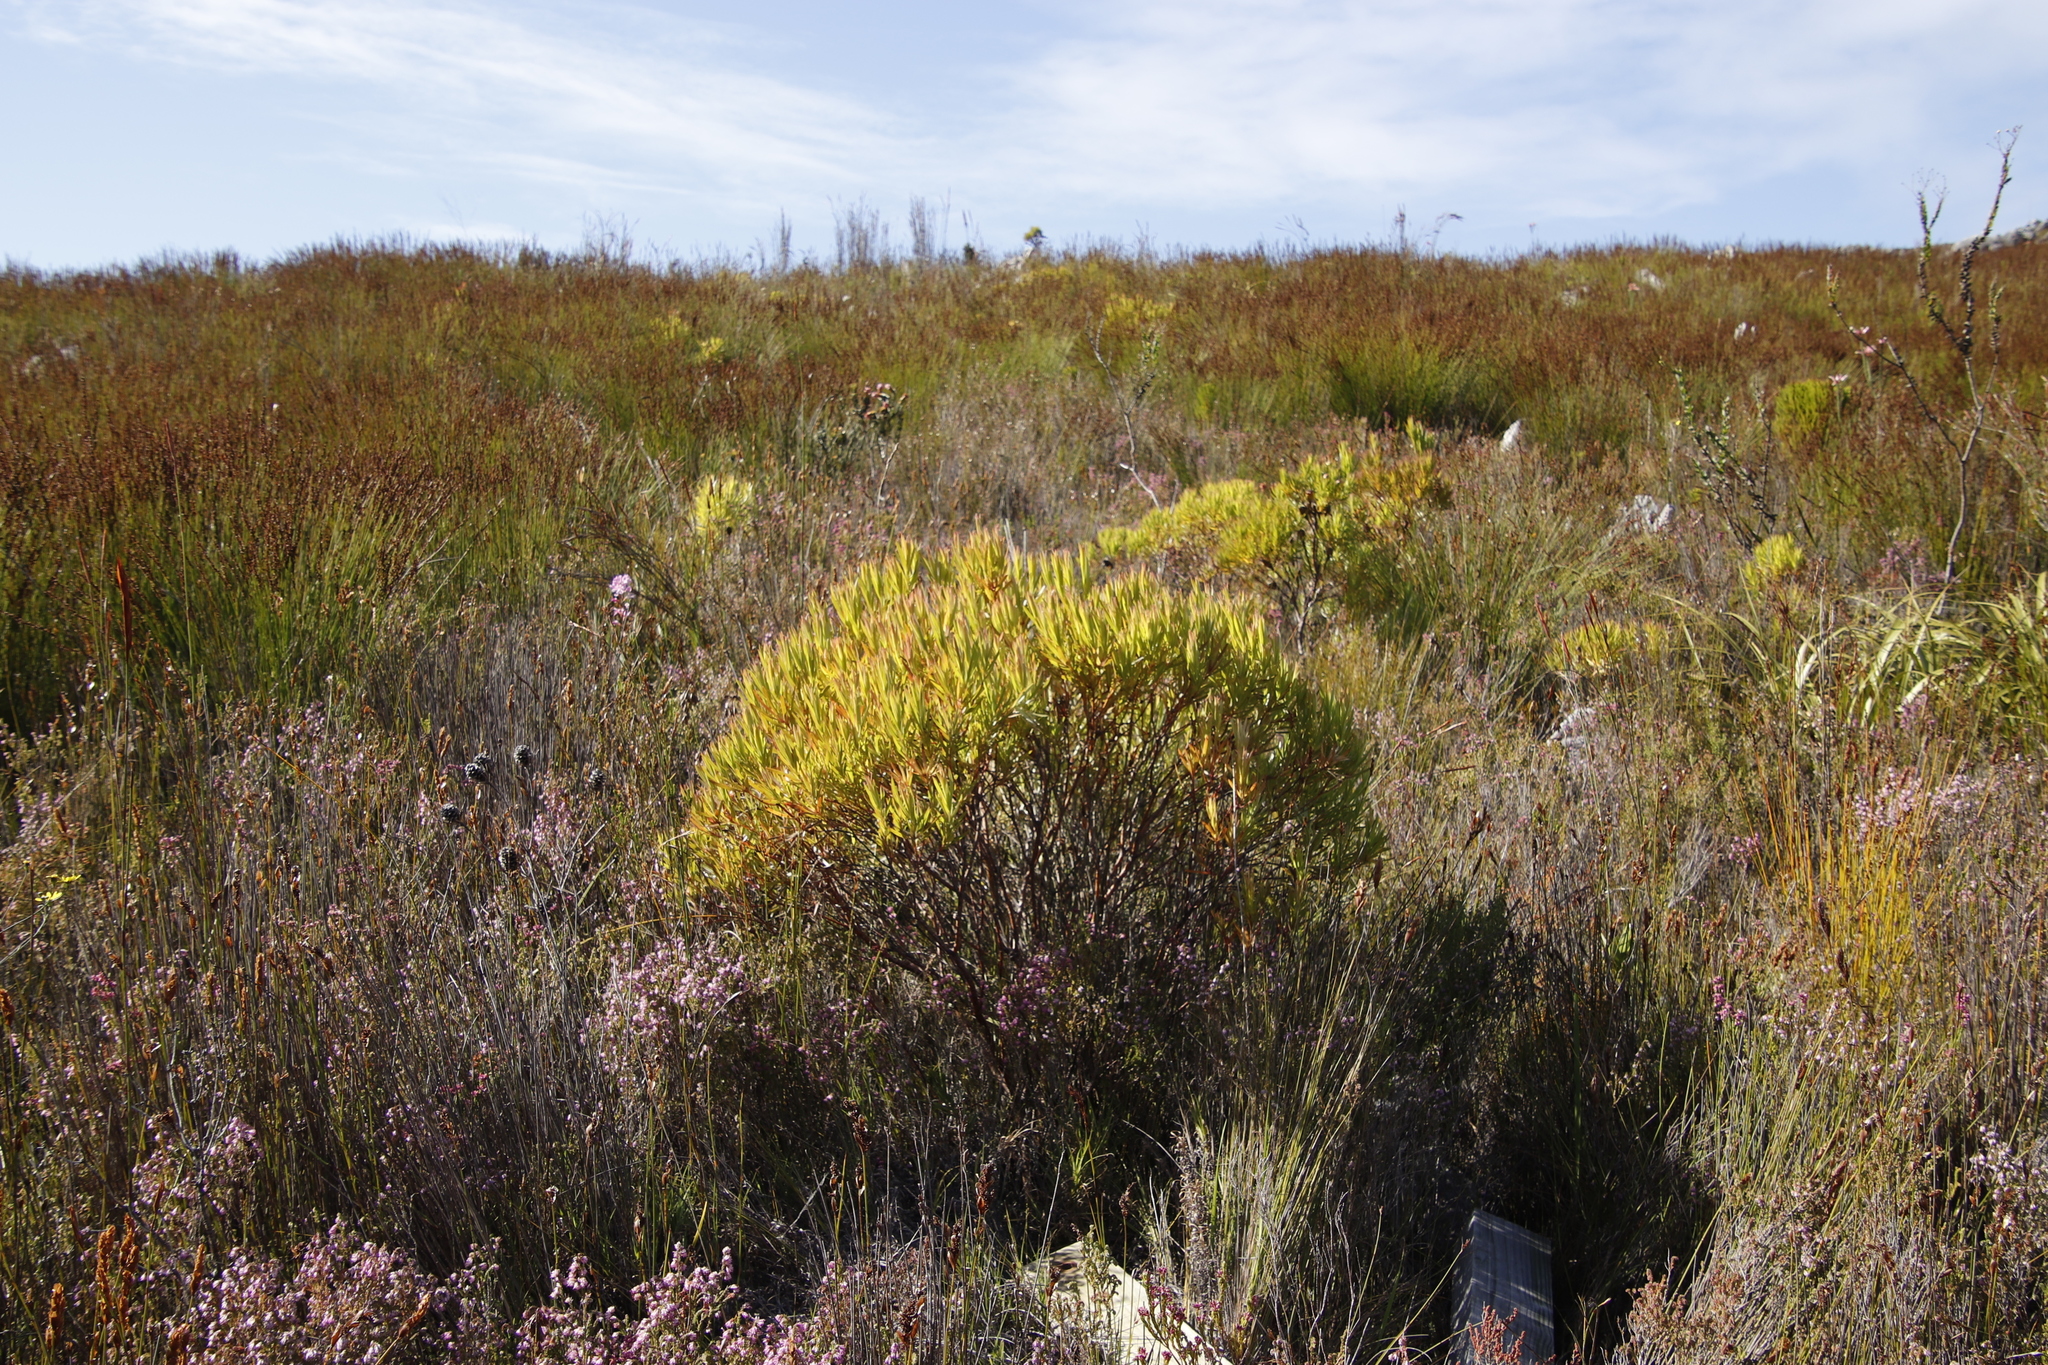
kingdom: Plantae
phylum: Tracheophyta
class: Magnoliopsida
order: Proteales
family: Proteaceae
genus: Leucadendron
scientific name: Leucadendron xanthoconus
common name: Sickle-leaf conebush
